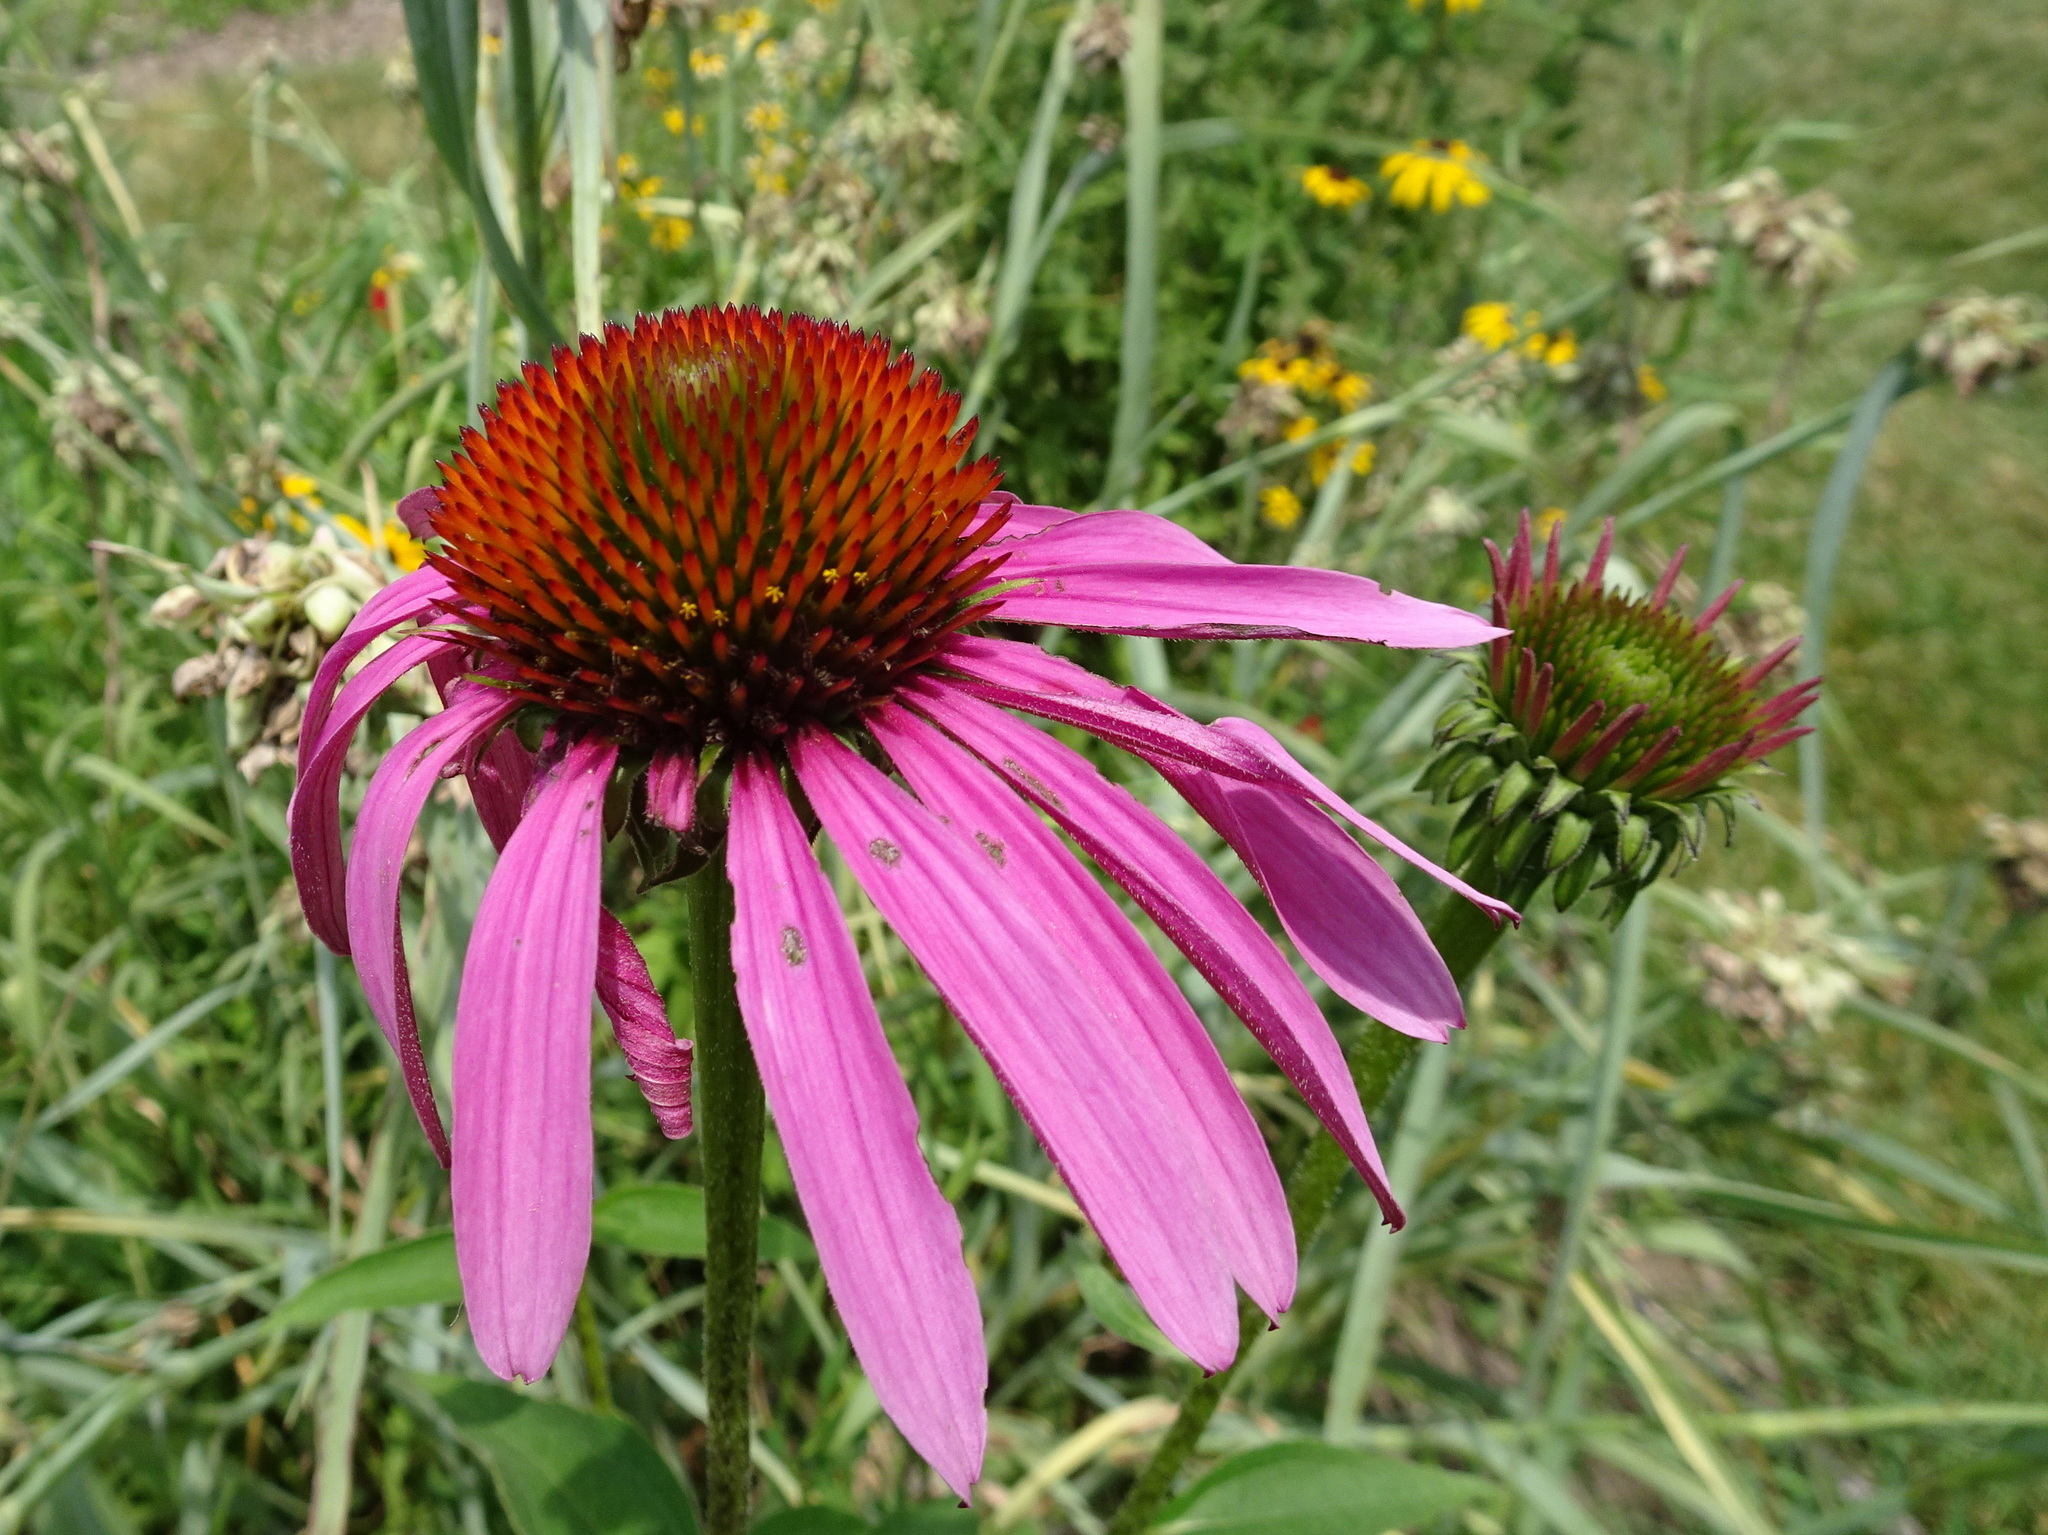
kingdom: Plantae
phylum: Tracheophyta
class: Magnoliopsida
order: Asterales
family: Asteraceae
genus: Echinacea
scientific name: Echinacea purpurea
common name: Broad-leaved purple coneflower
